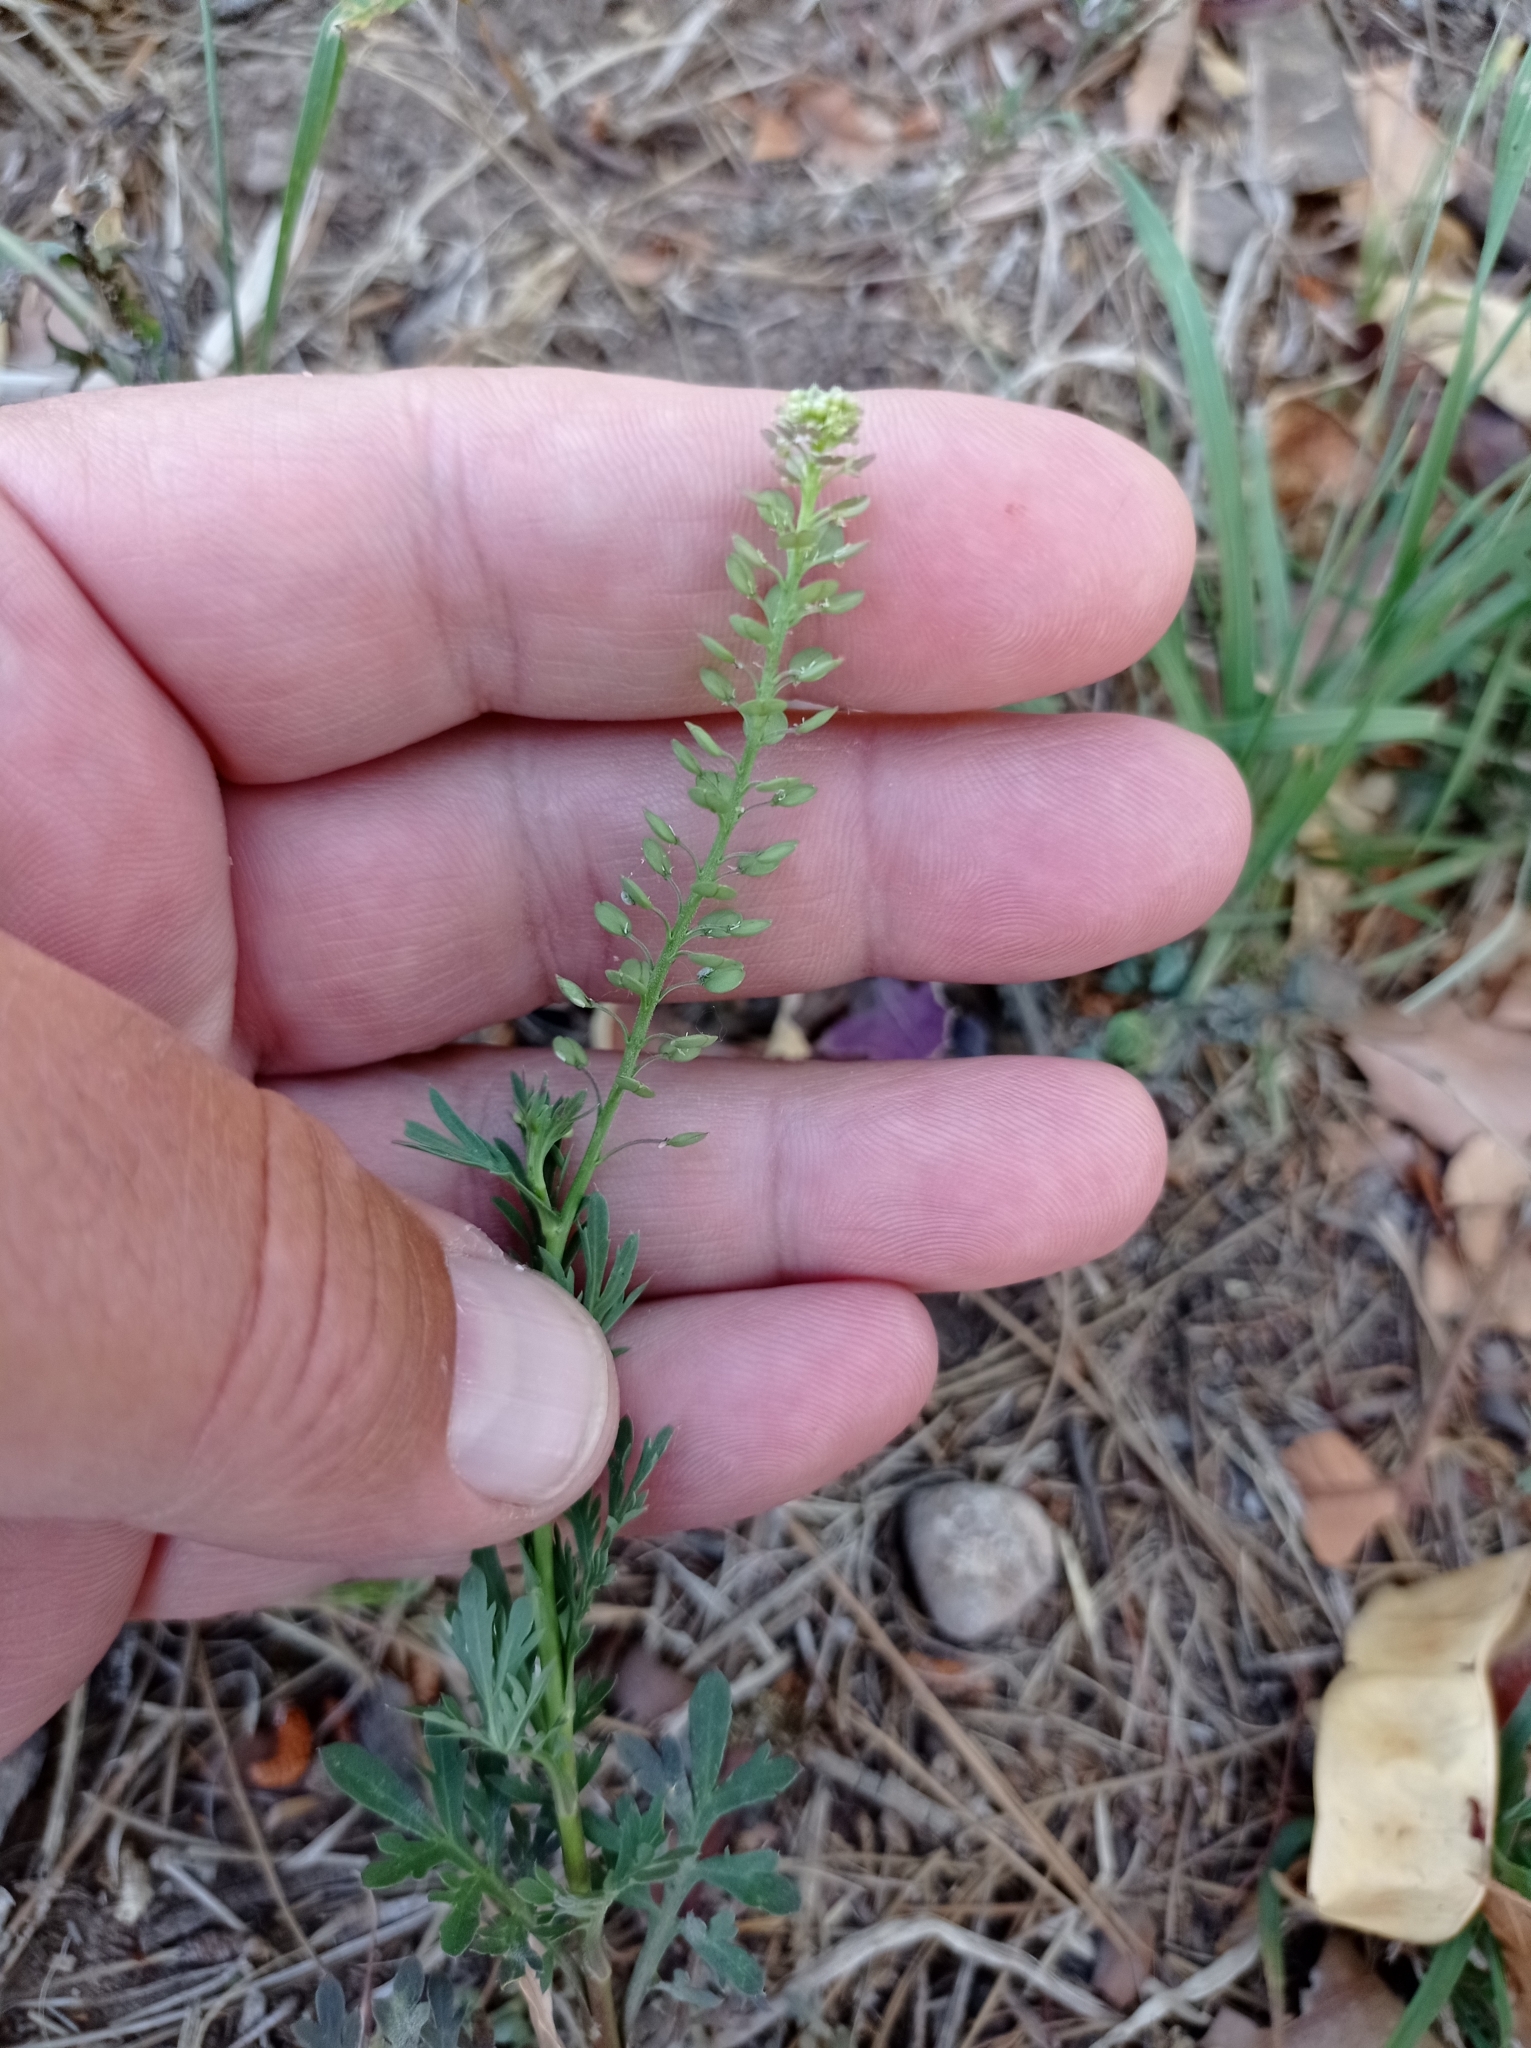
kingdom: Plantae
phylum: Tracheophyta
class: Magnoliopsida
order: Brassicales
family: Brassicaceae
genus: Lepidium
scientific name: Lepidium bonariense
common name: Argentine pepperwort
